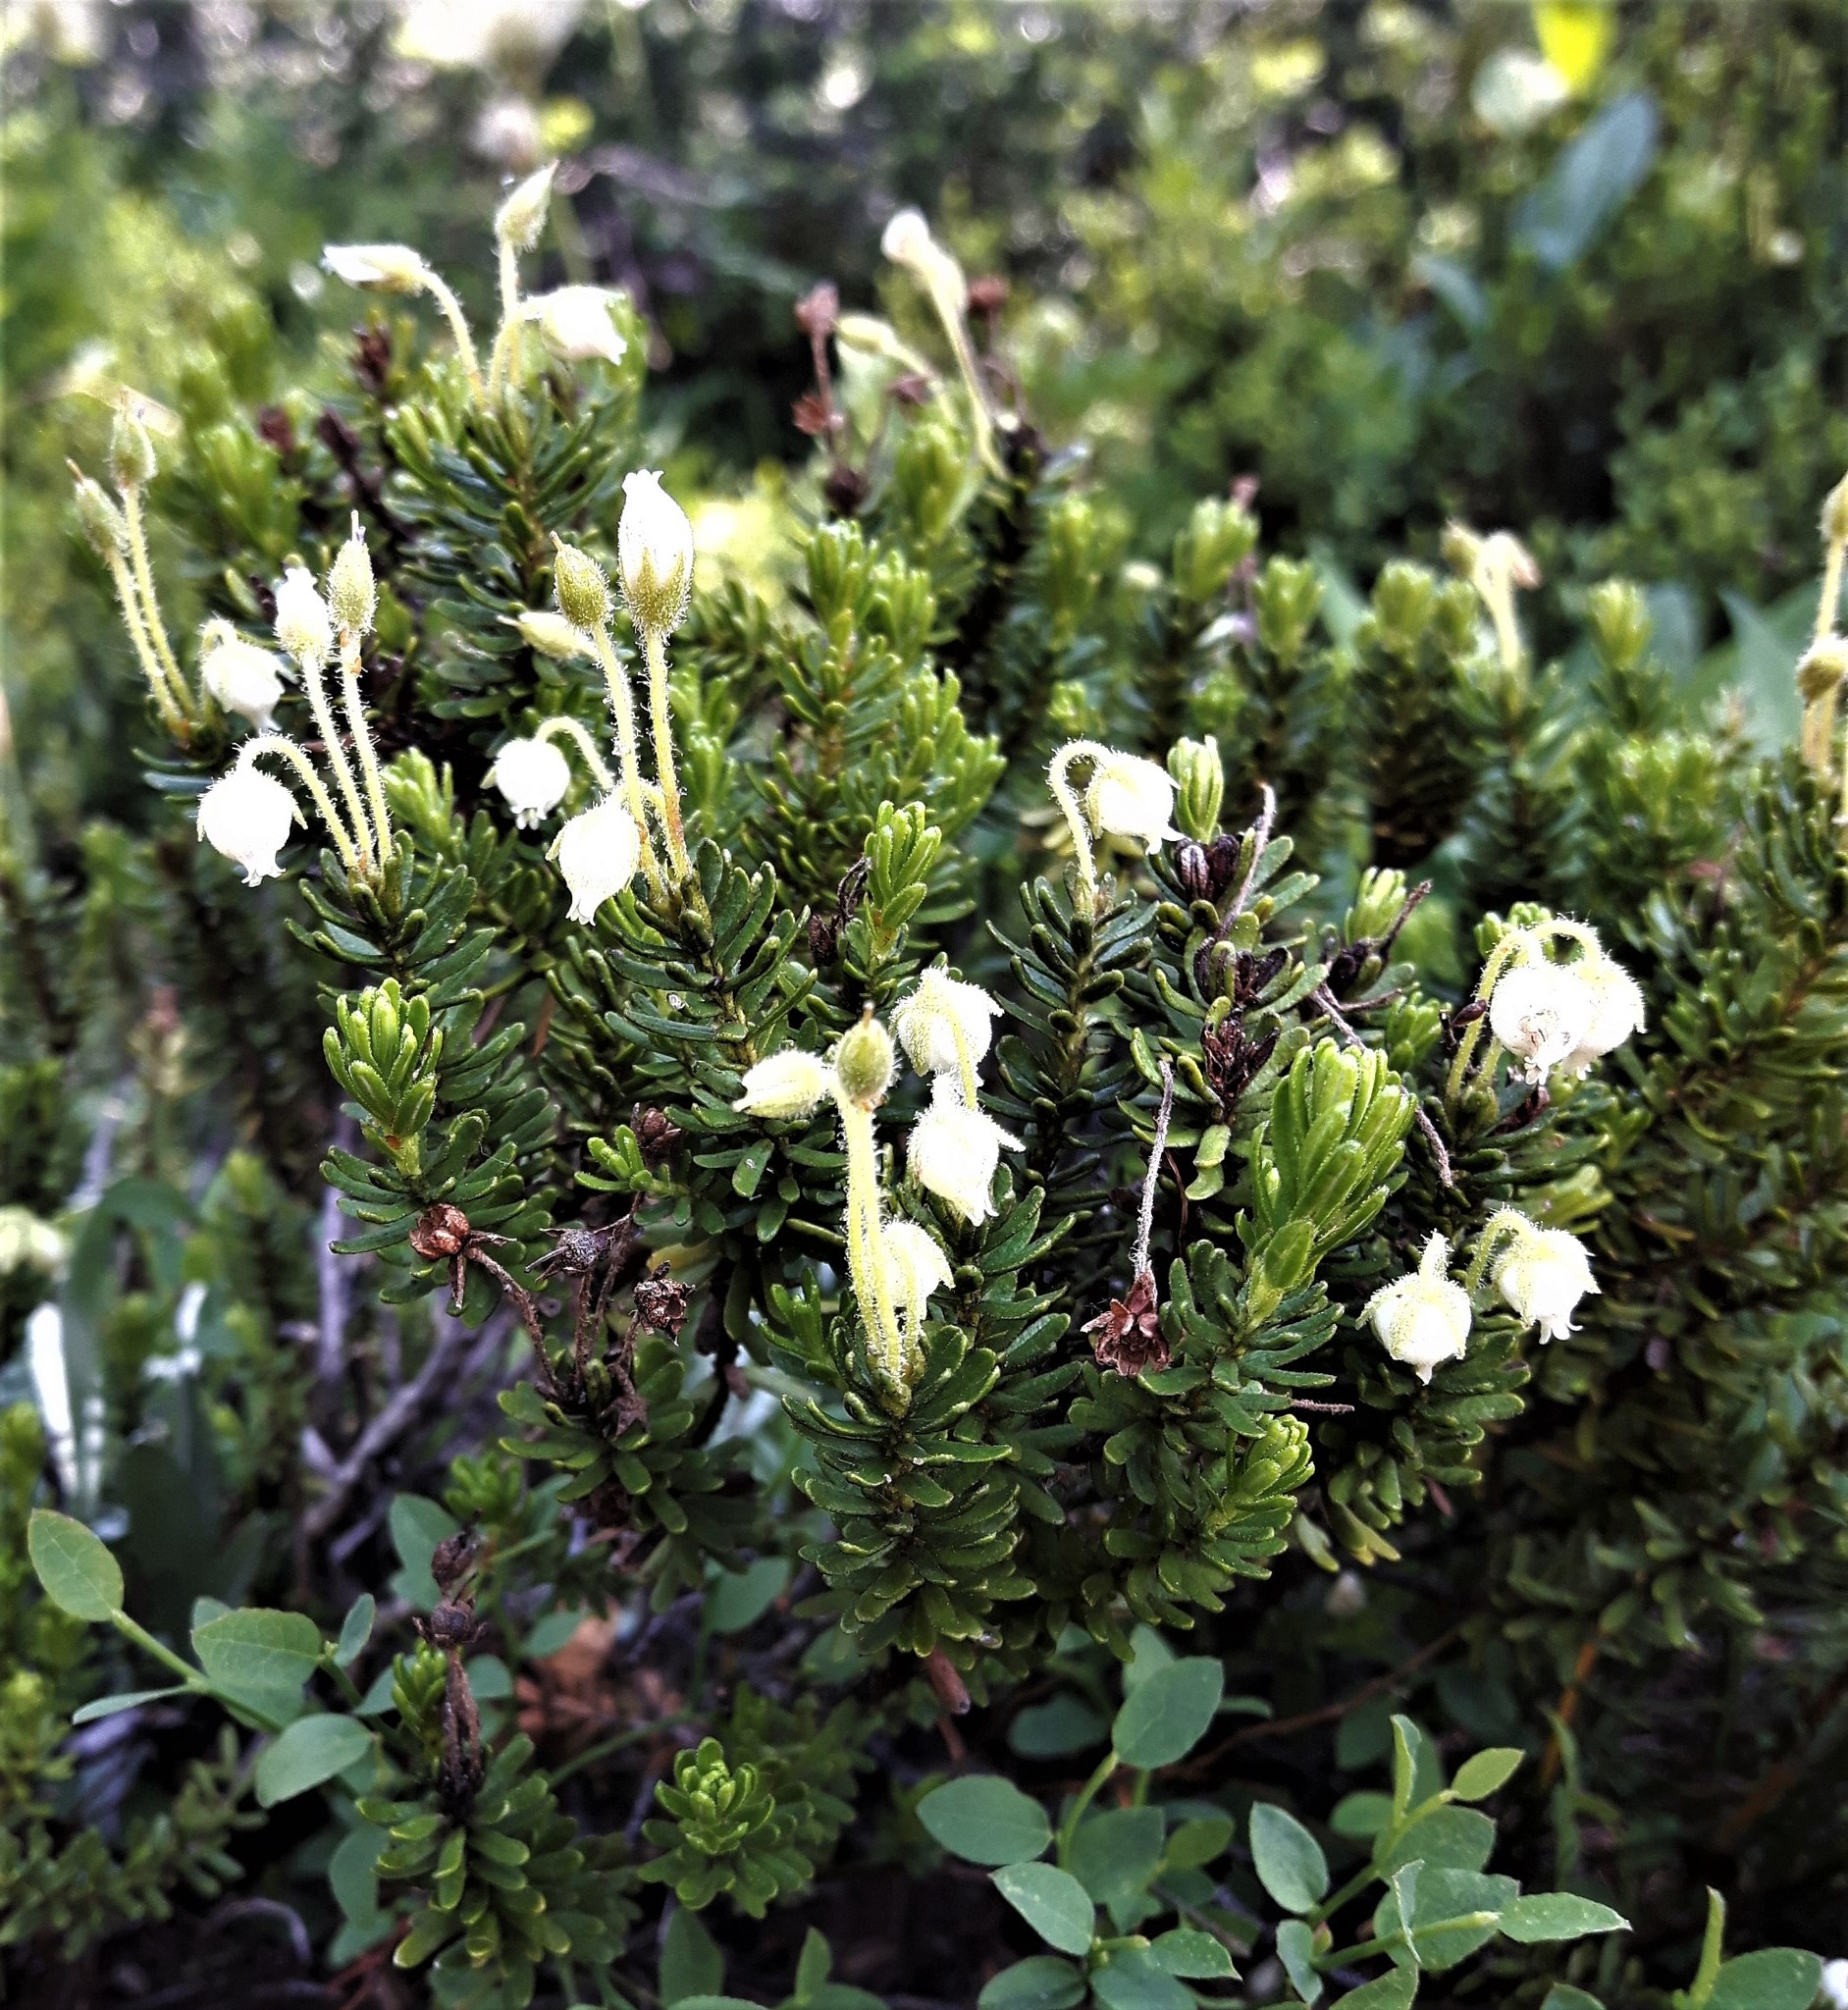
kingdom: Plantae
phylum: Tracheophyta
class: Magnoliopsida
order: Ericales
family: Ericaceae
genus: Phyllodoce
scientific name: Phyllodoce glanduliflora
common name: Cream mountain heather
